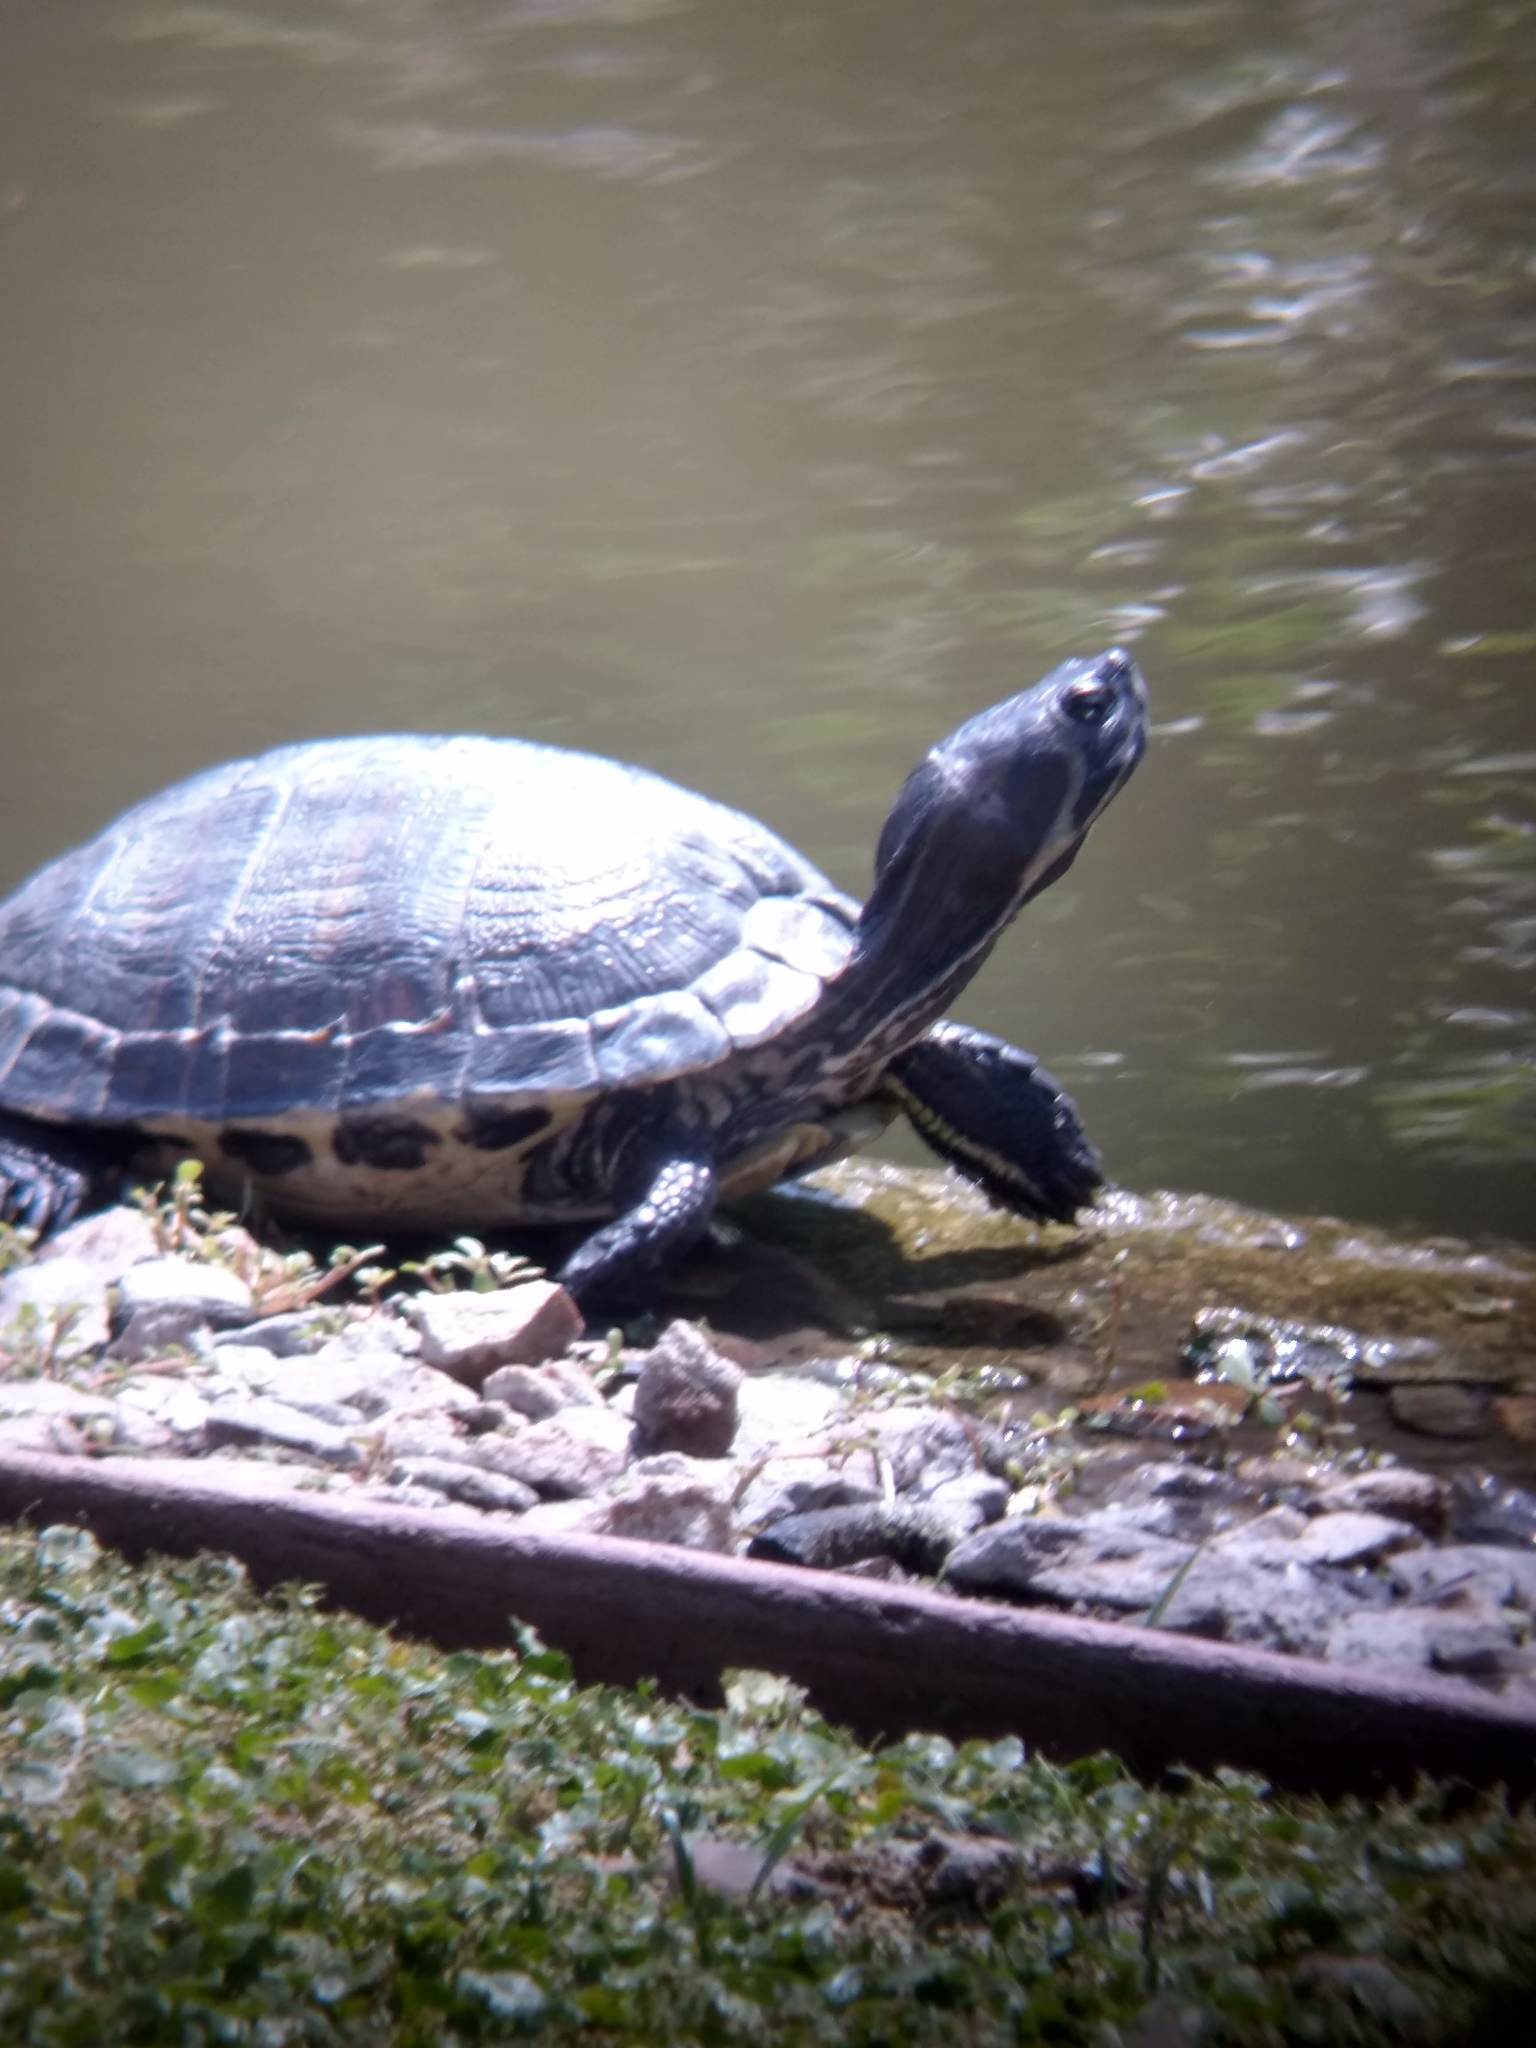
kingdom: Animalia
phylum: Chordata
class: Testudines
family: Emydidae
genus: Trachemys
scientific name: Trachemys scripta
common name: Slider
